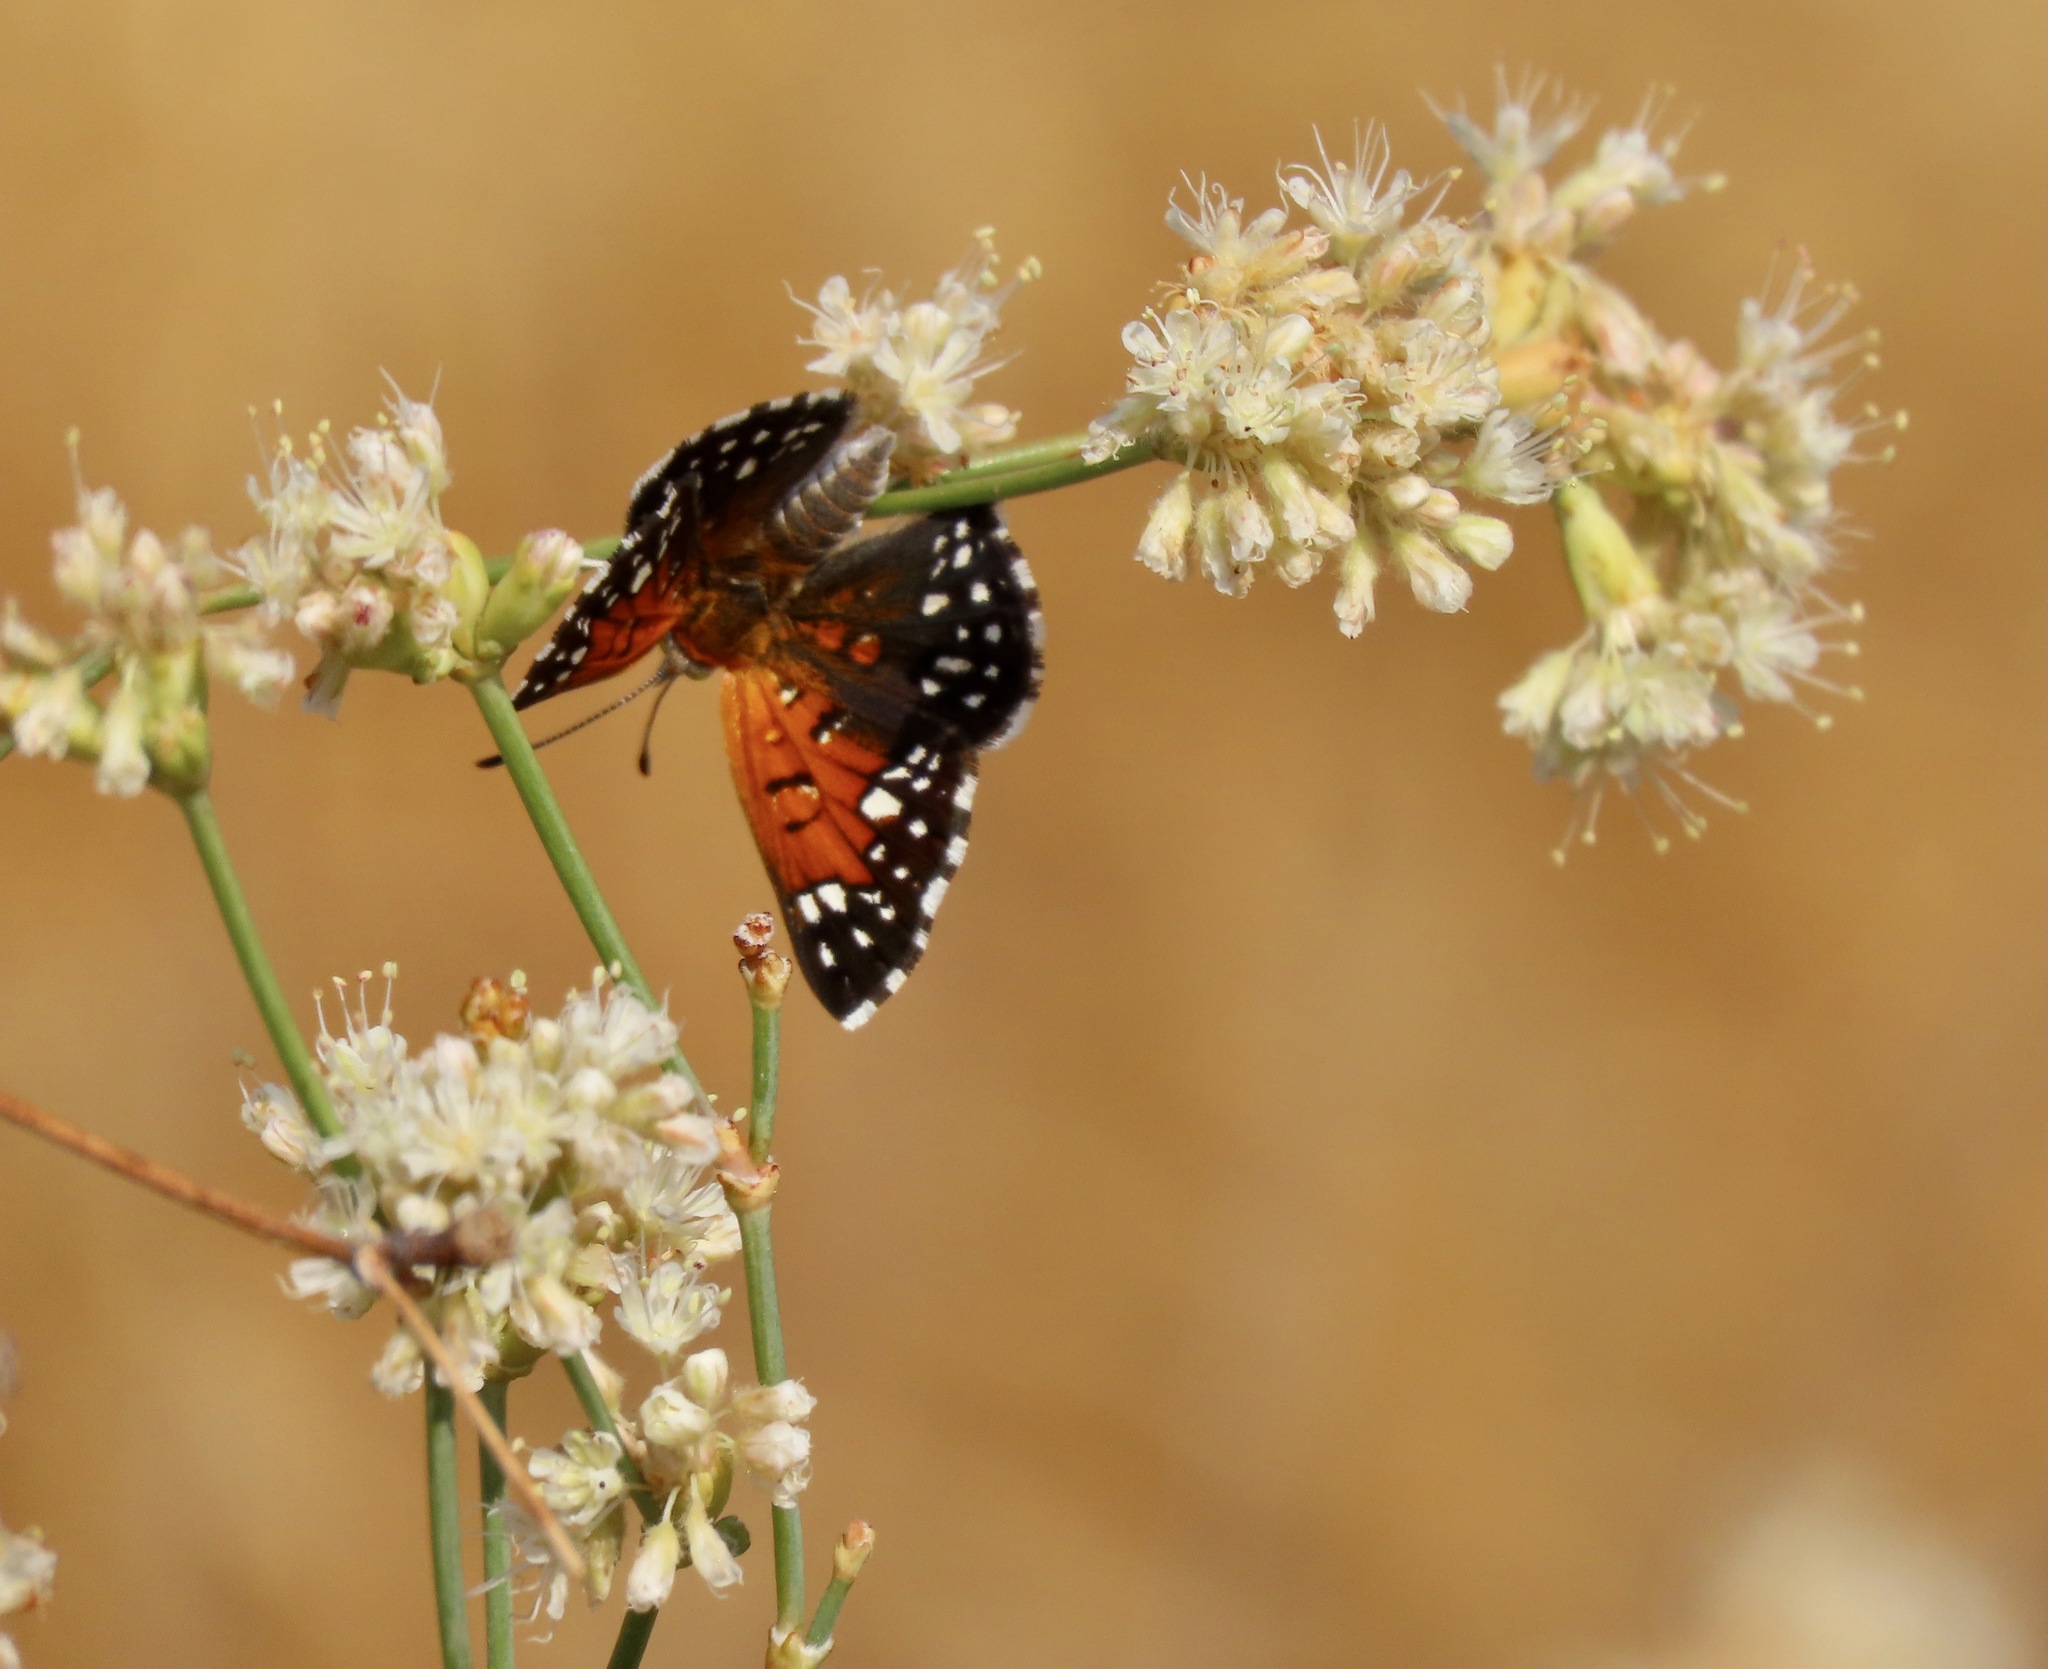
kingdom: Animalia
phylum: Arthropoda
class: Insecta
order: Lepidoptera
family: Riodinidae
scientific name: Riodinidae
